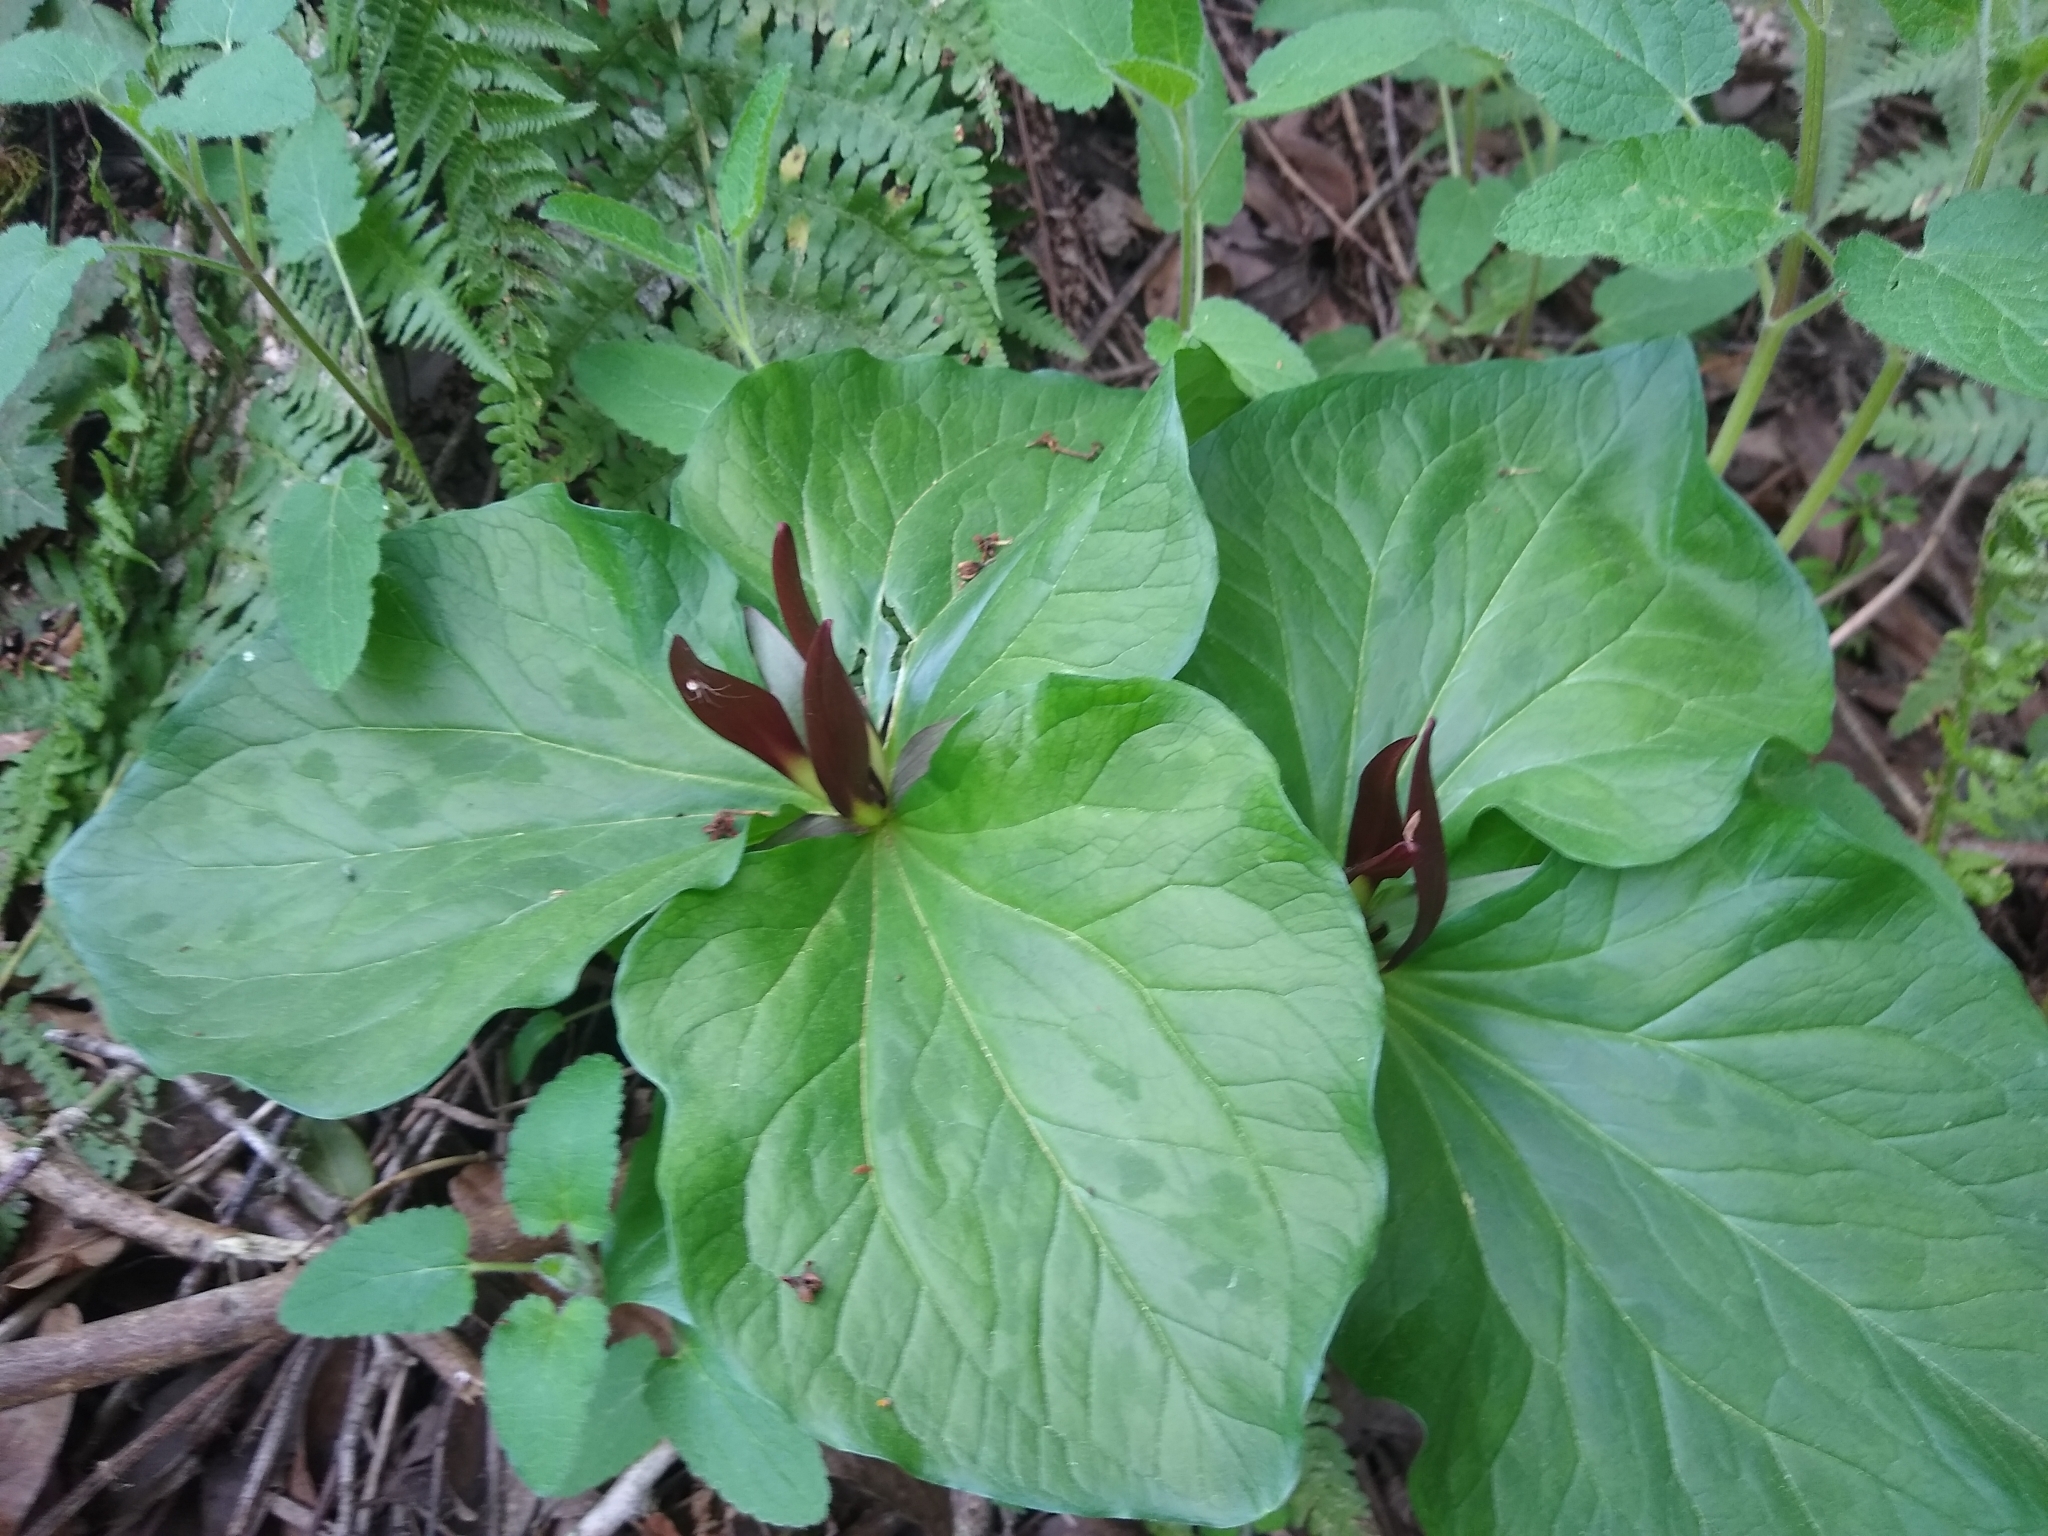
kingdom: Plantae
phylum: Tracheophyta
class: Liliopsida
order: Liliales
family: Melanthiaceae
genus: Trillium
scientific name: Trillium chloropetalum
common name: Giant trillium
